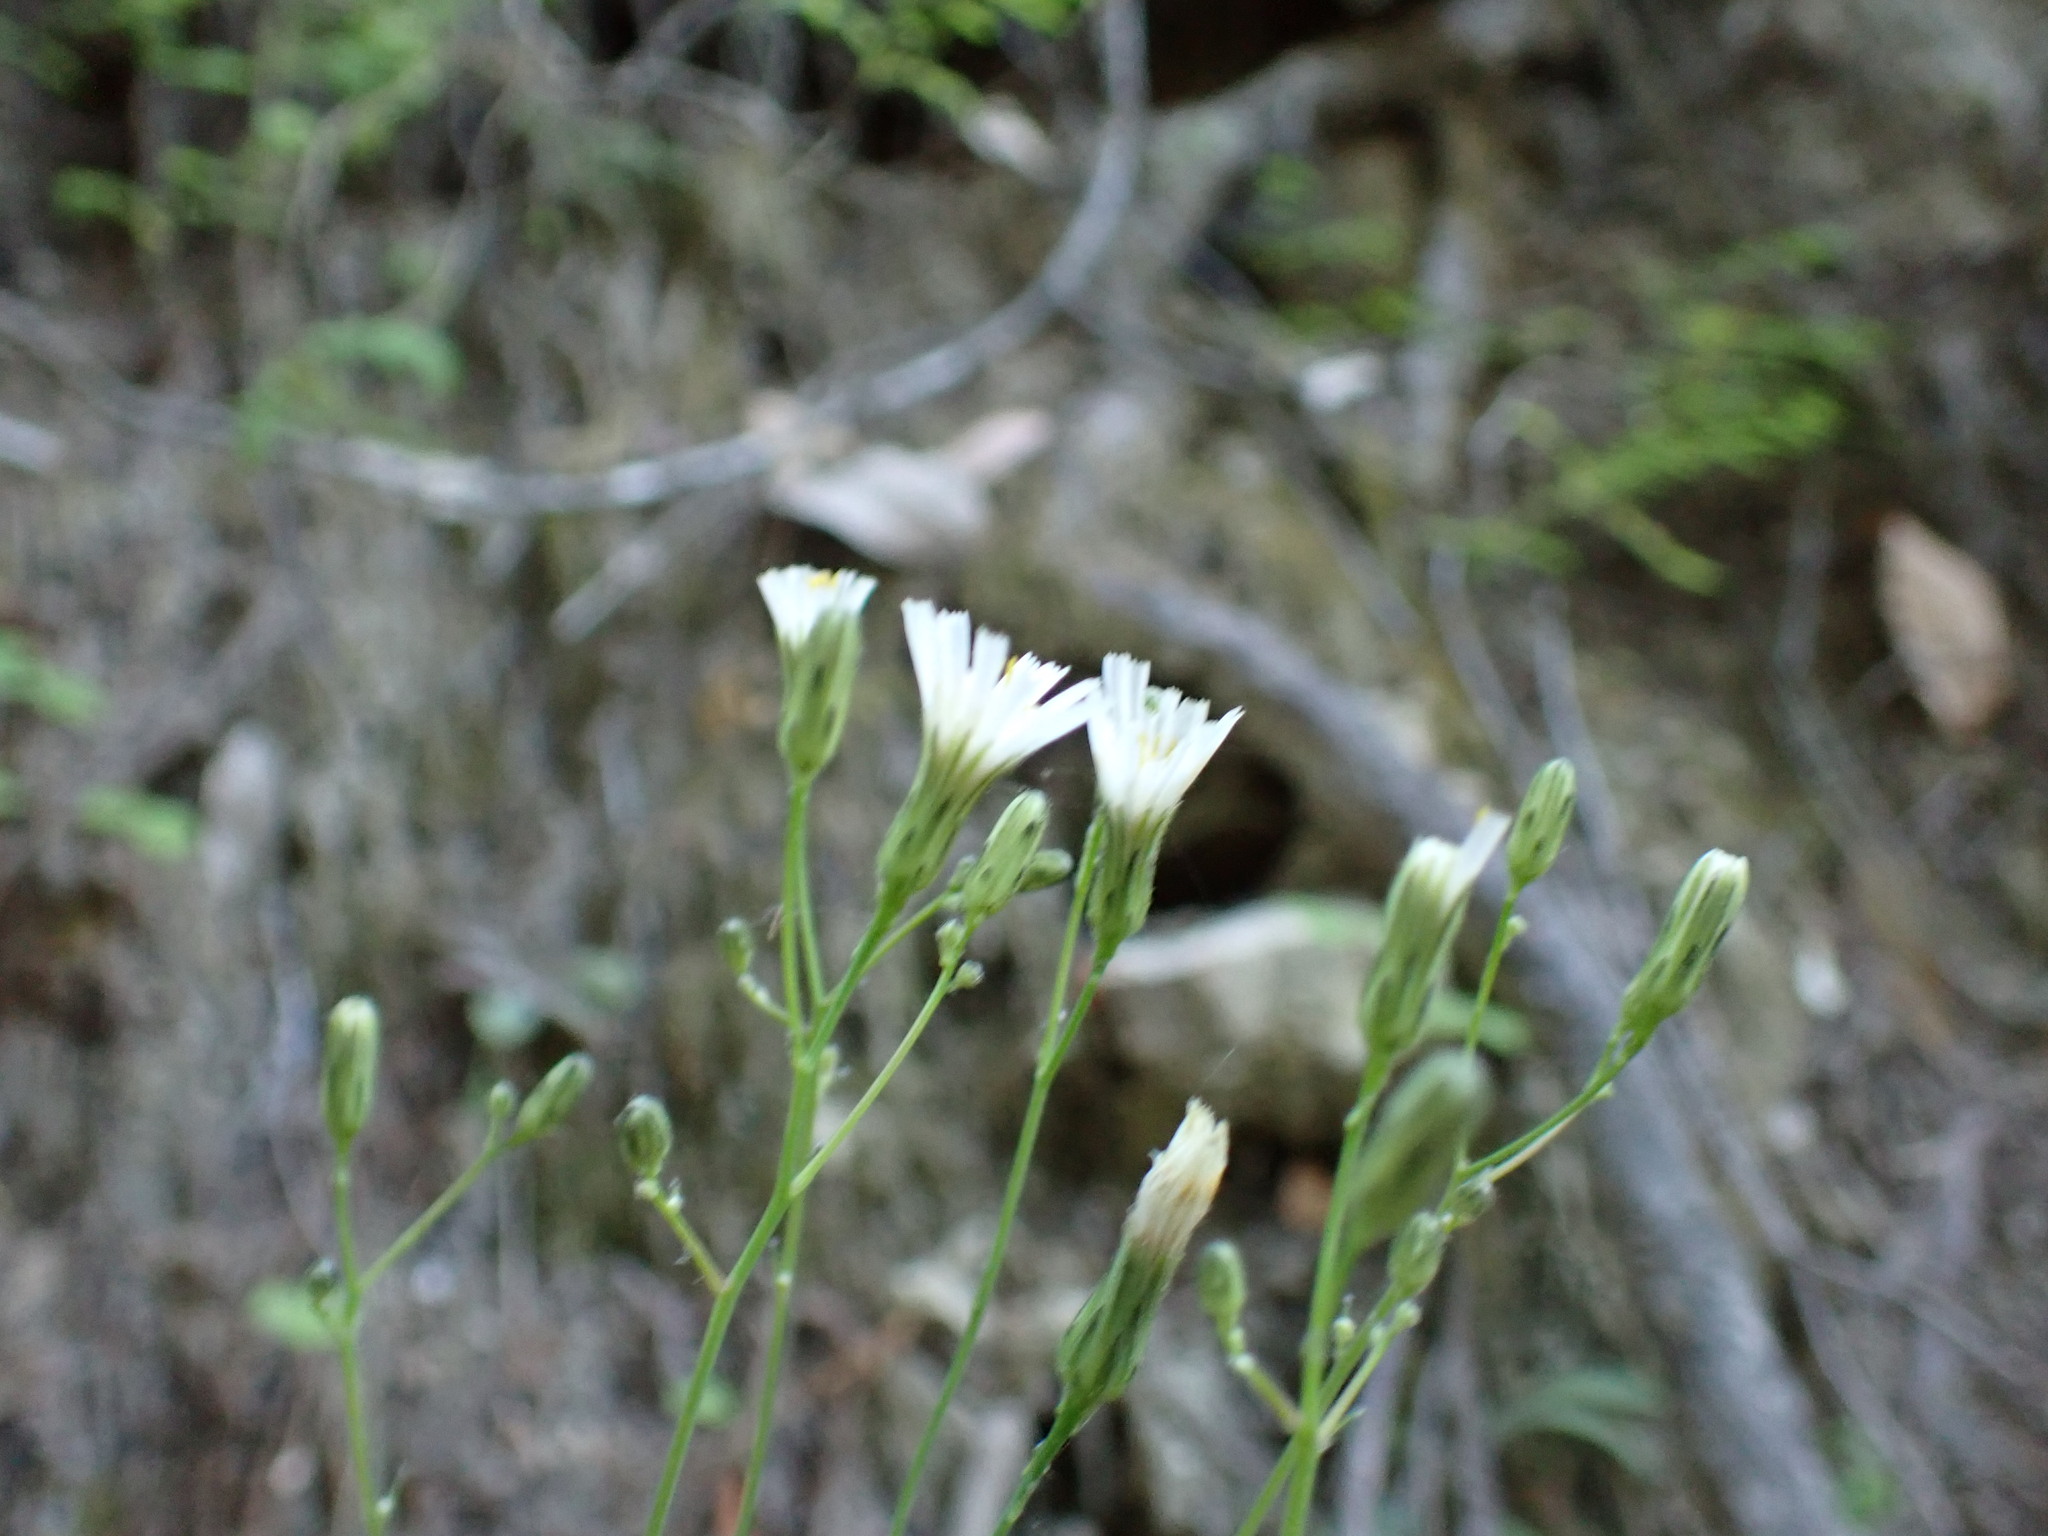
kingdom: Plantae
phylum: Tracheophyta
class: Magnoliopsida
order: Asterales
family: Asteraceae
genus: Hieracium
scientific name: Hieracium albiflorum
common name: White hawkweed
